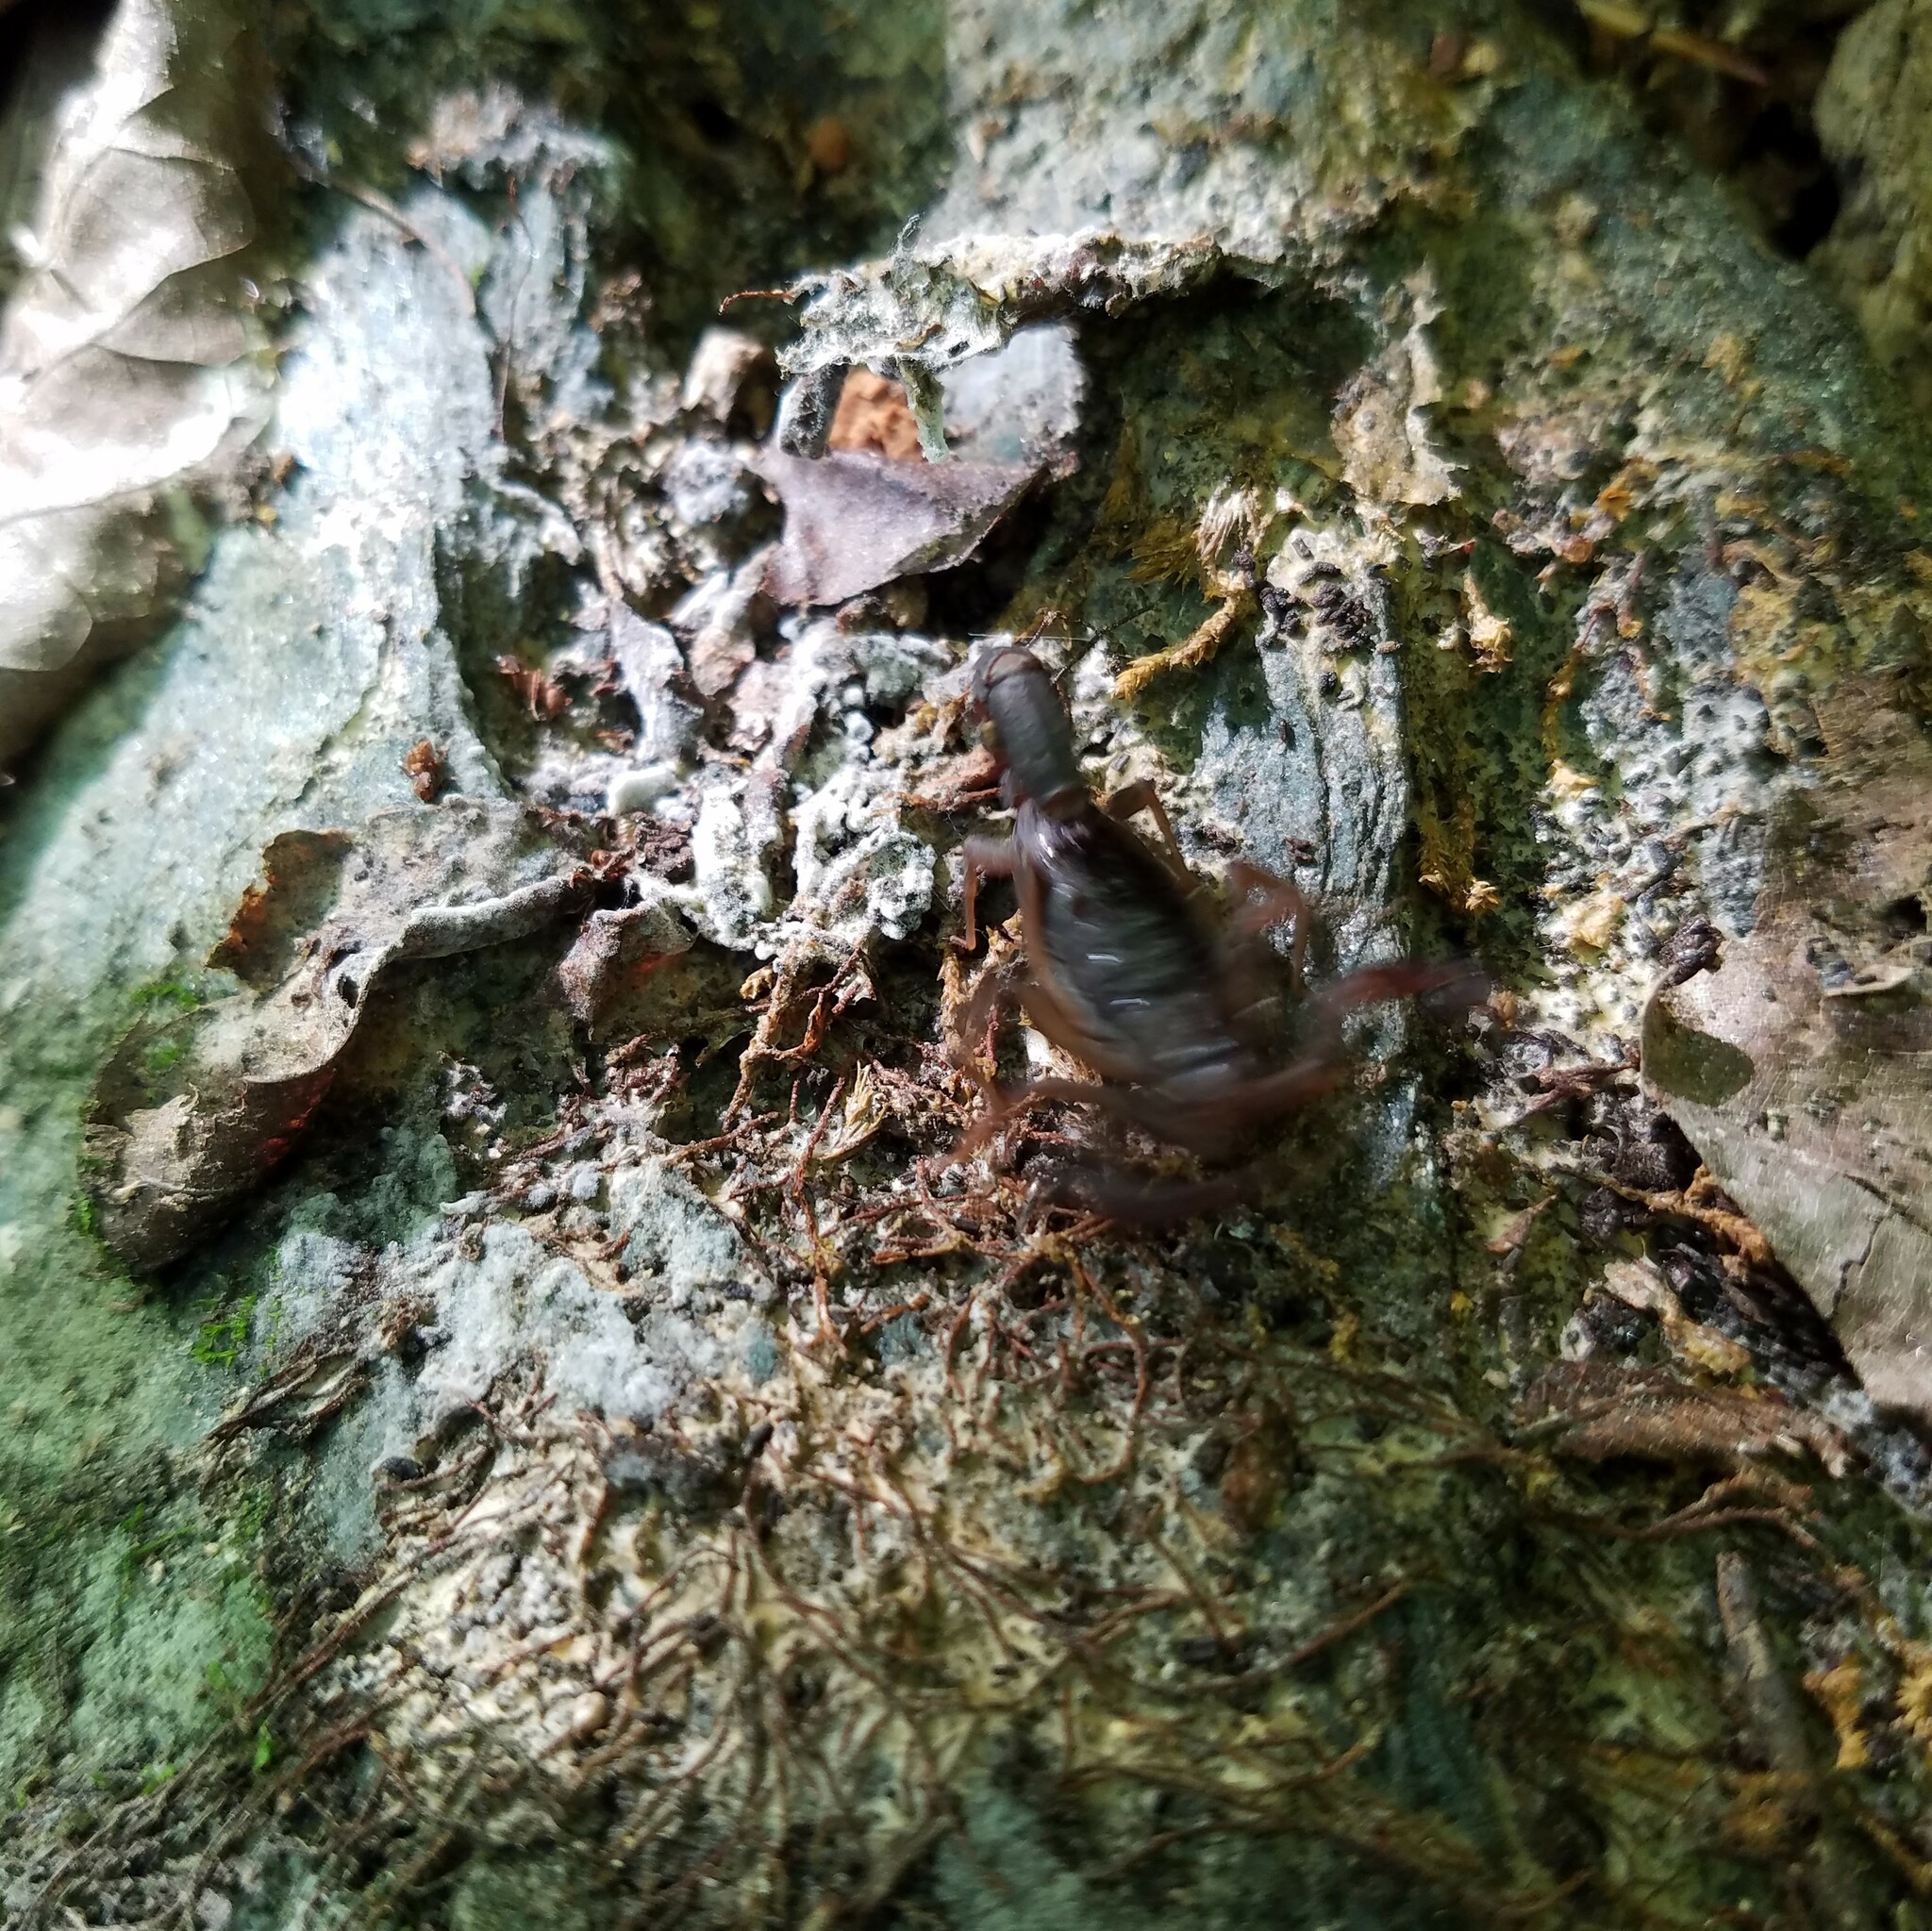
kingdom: Animalia
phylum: Arthropoda
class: Arachnida
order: Scorpiones
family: Vaejovidae
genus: Vaejovis
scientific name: Vaejovis carolinianus
